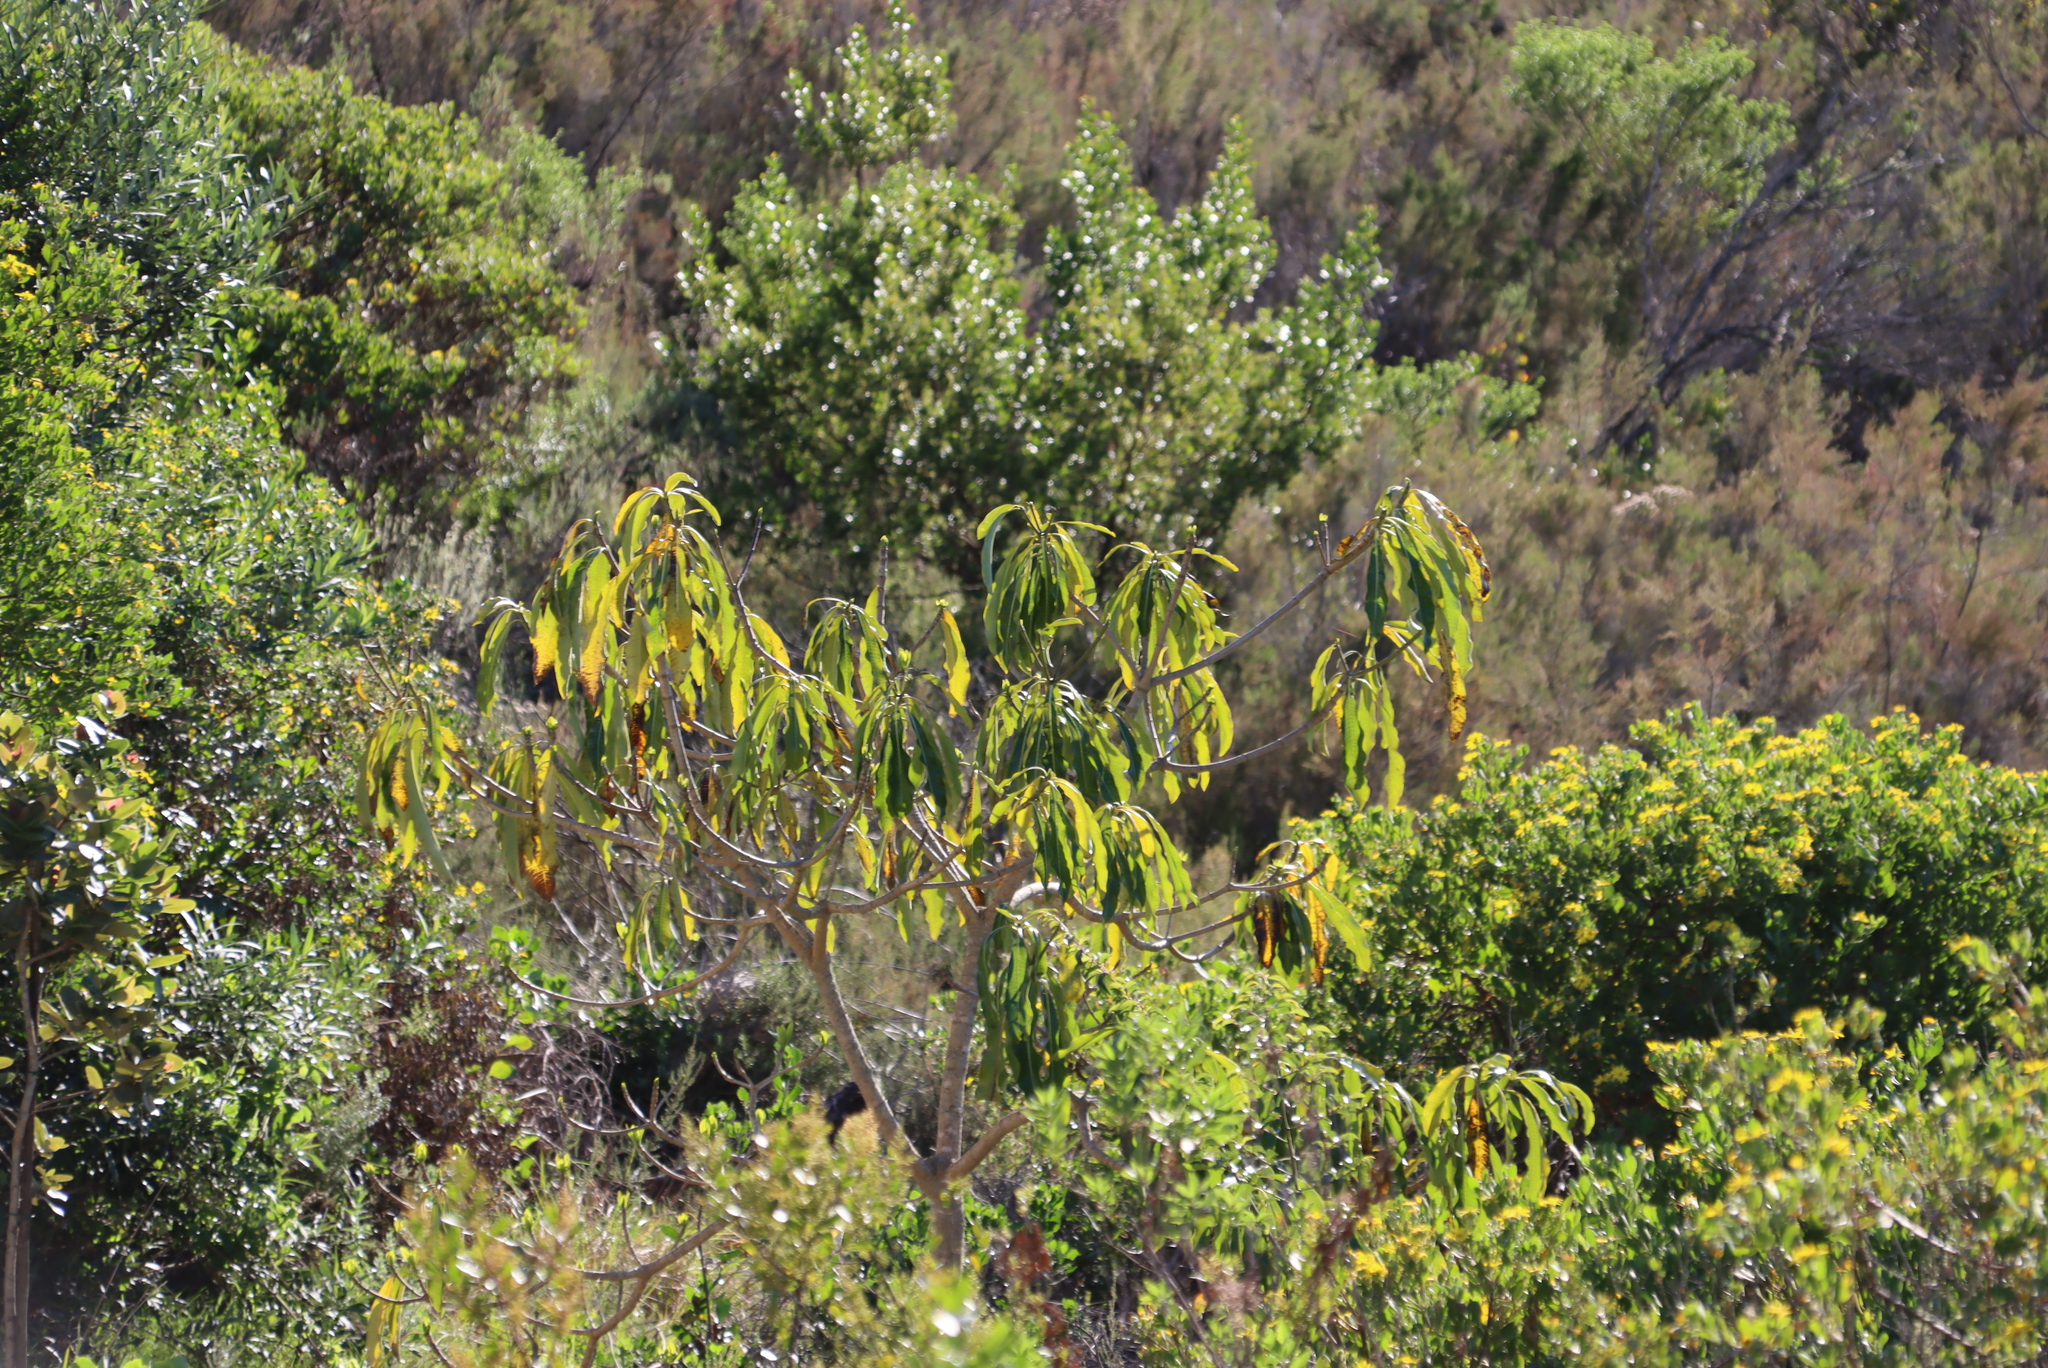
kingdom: Plantae
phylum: Tracheophyta
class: Magnoliopsida
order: Gentianales
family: Apocynaceae
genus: Rauvolfia
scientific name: Rauvolfia caffra
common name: Quininetree
